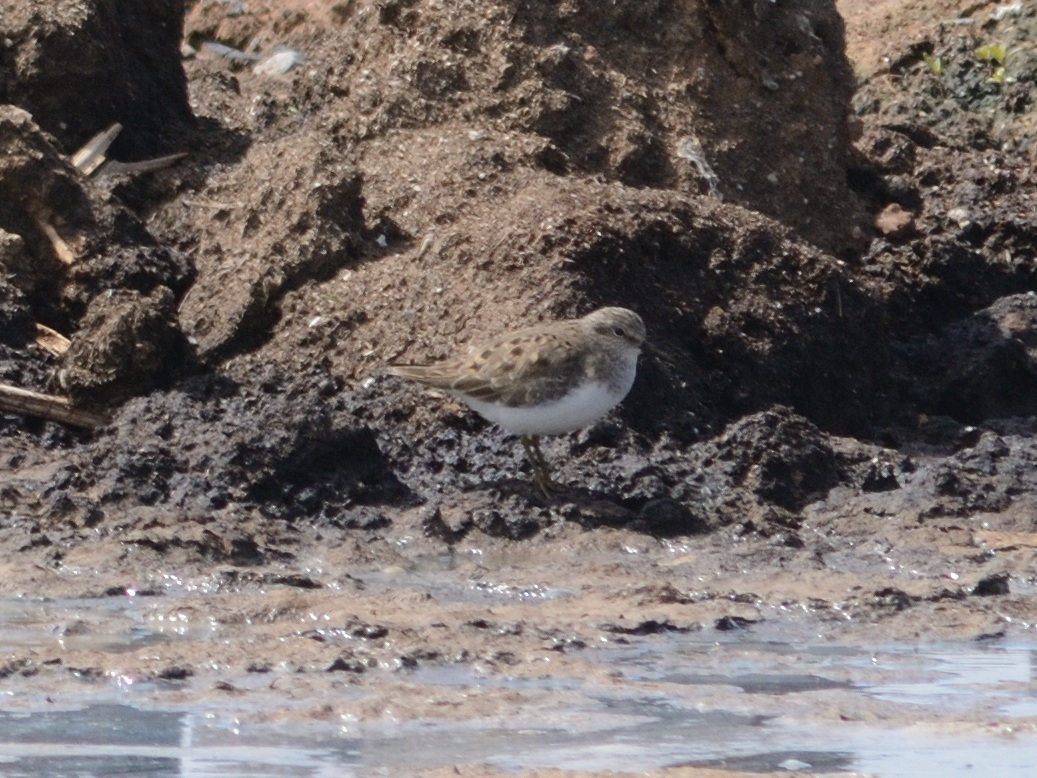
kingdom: Animalia
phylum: Chordata
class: Aves
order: Charadriiformes
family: Scolopacidae
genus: Calidris
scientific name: Calidris temminckii
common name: Temminck's stint
